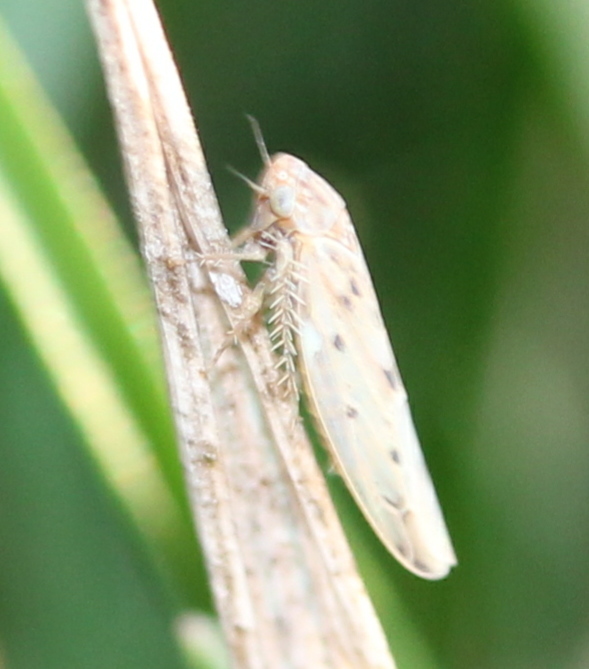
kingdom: Animalia
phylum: Arthropoda
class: Insecta
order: Hemiptera
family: Cicadellidae
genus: Balclutha
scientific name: Balclutha confluens
